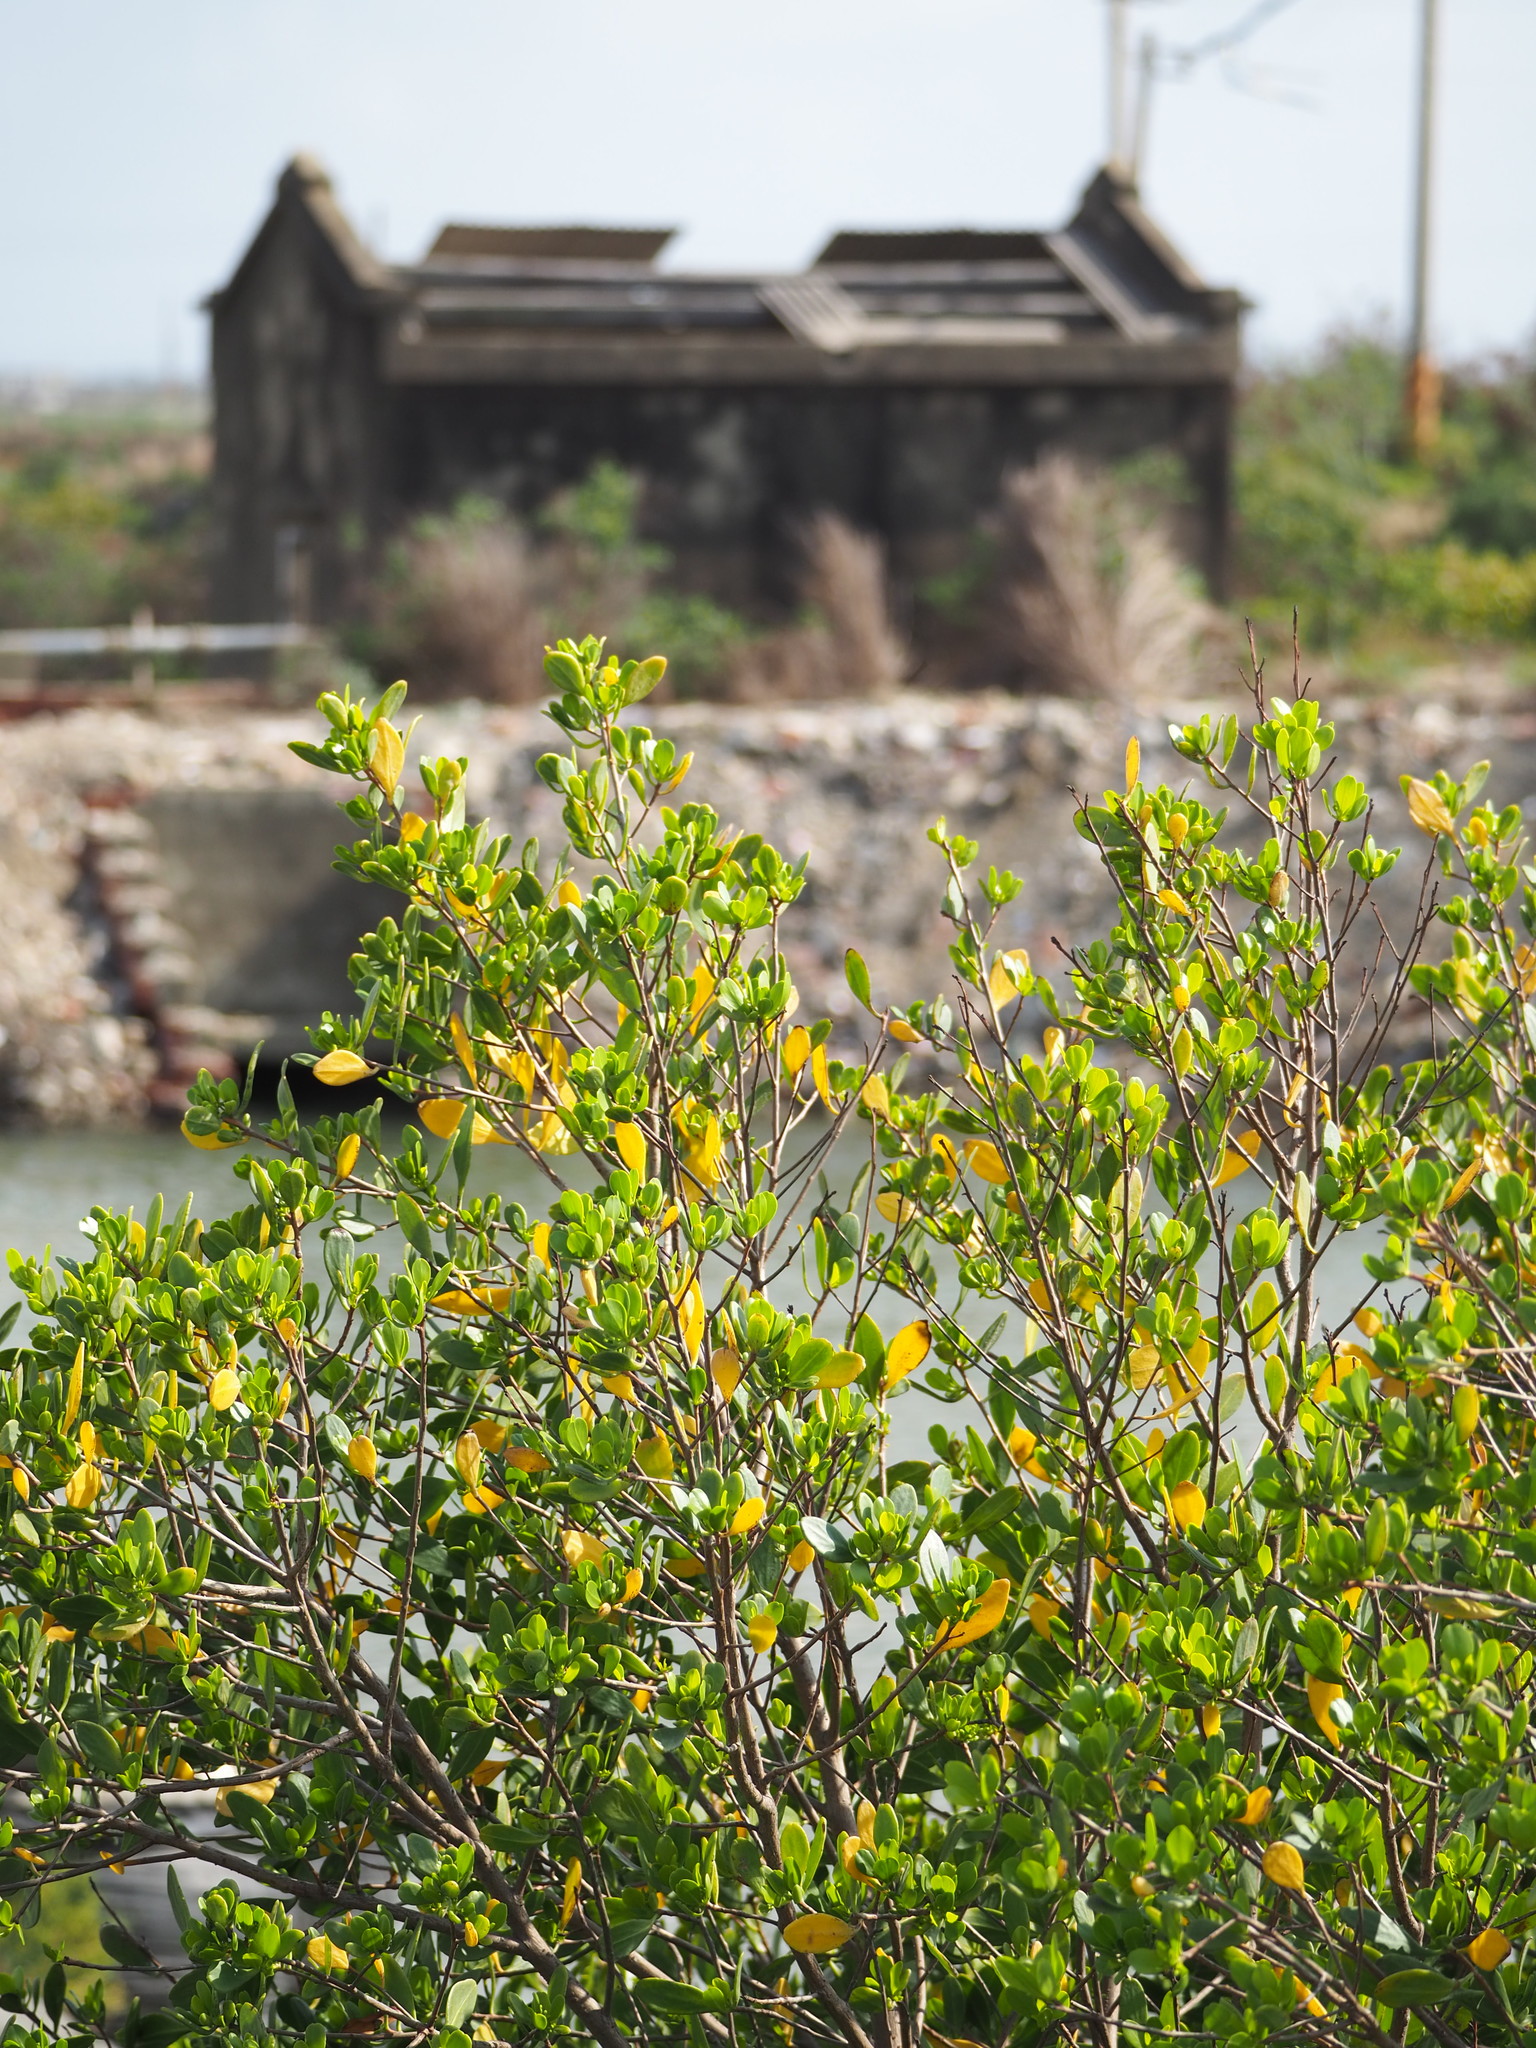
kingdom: Plantae
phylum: Tracheophyta
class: Magnoliopsida
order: Myrtales
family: Combretaceae
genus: Lumnitzera
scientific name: Lumnitzera racemosa
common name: White-flowered black mangrove
